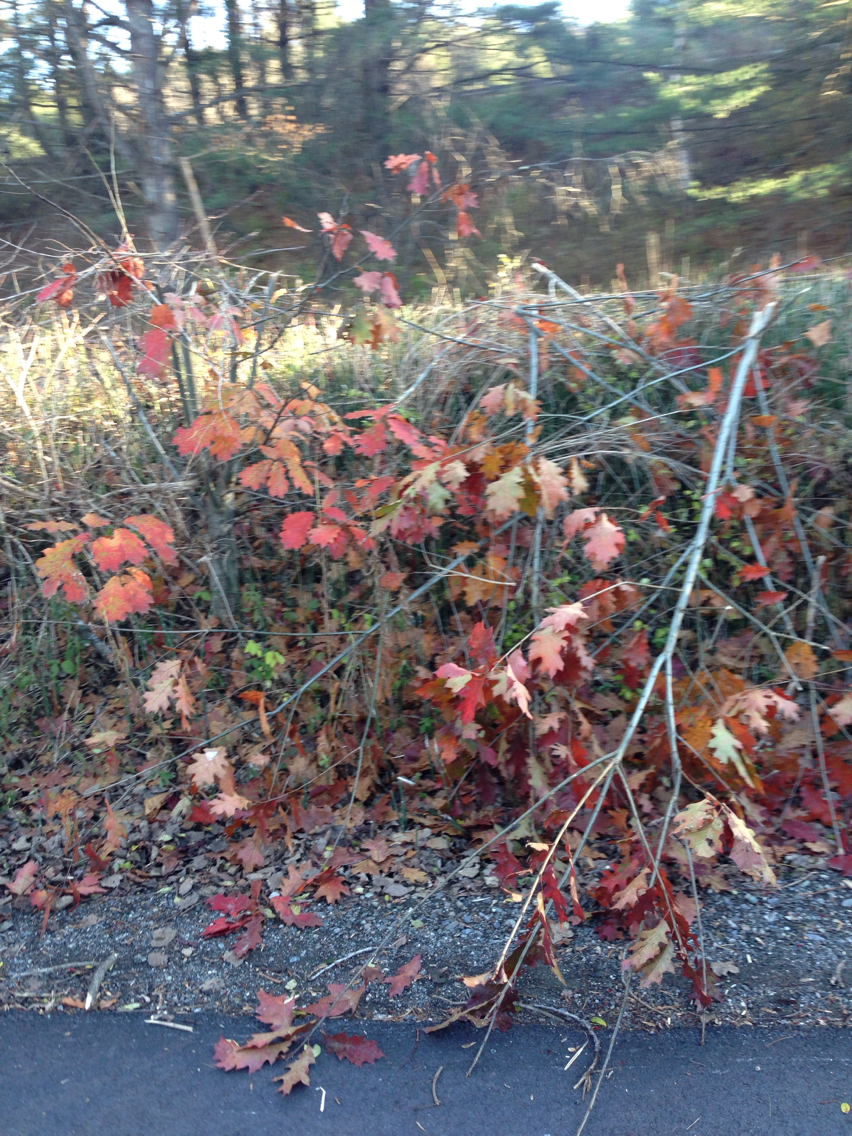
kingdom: Plantae
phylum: Tracheophyta
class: Magnoliopsida
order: Fagales
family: Fagaceae
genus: Quercus
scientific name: Quercus rubra
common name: Red oak
